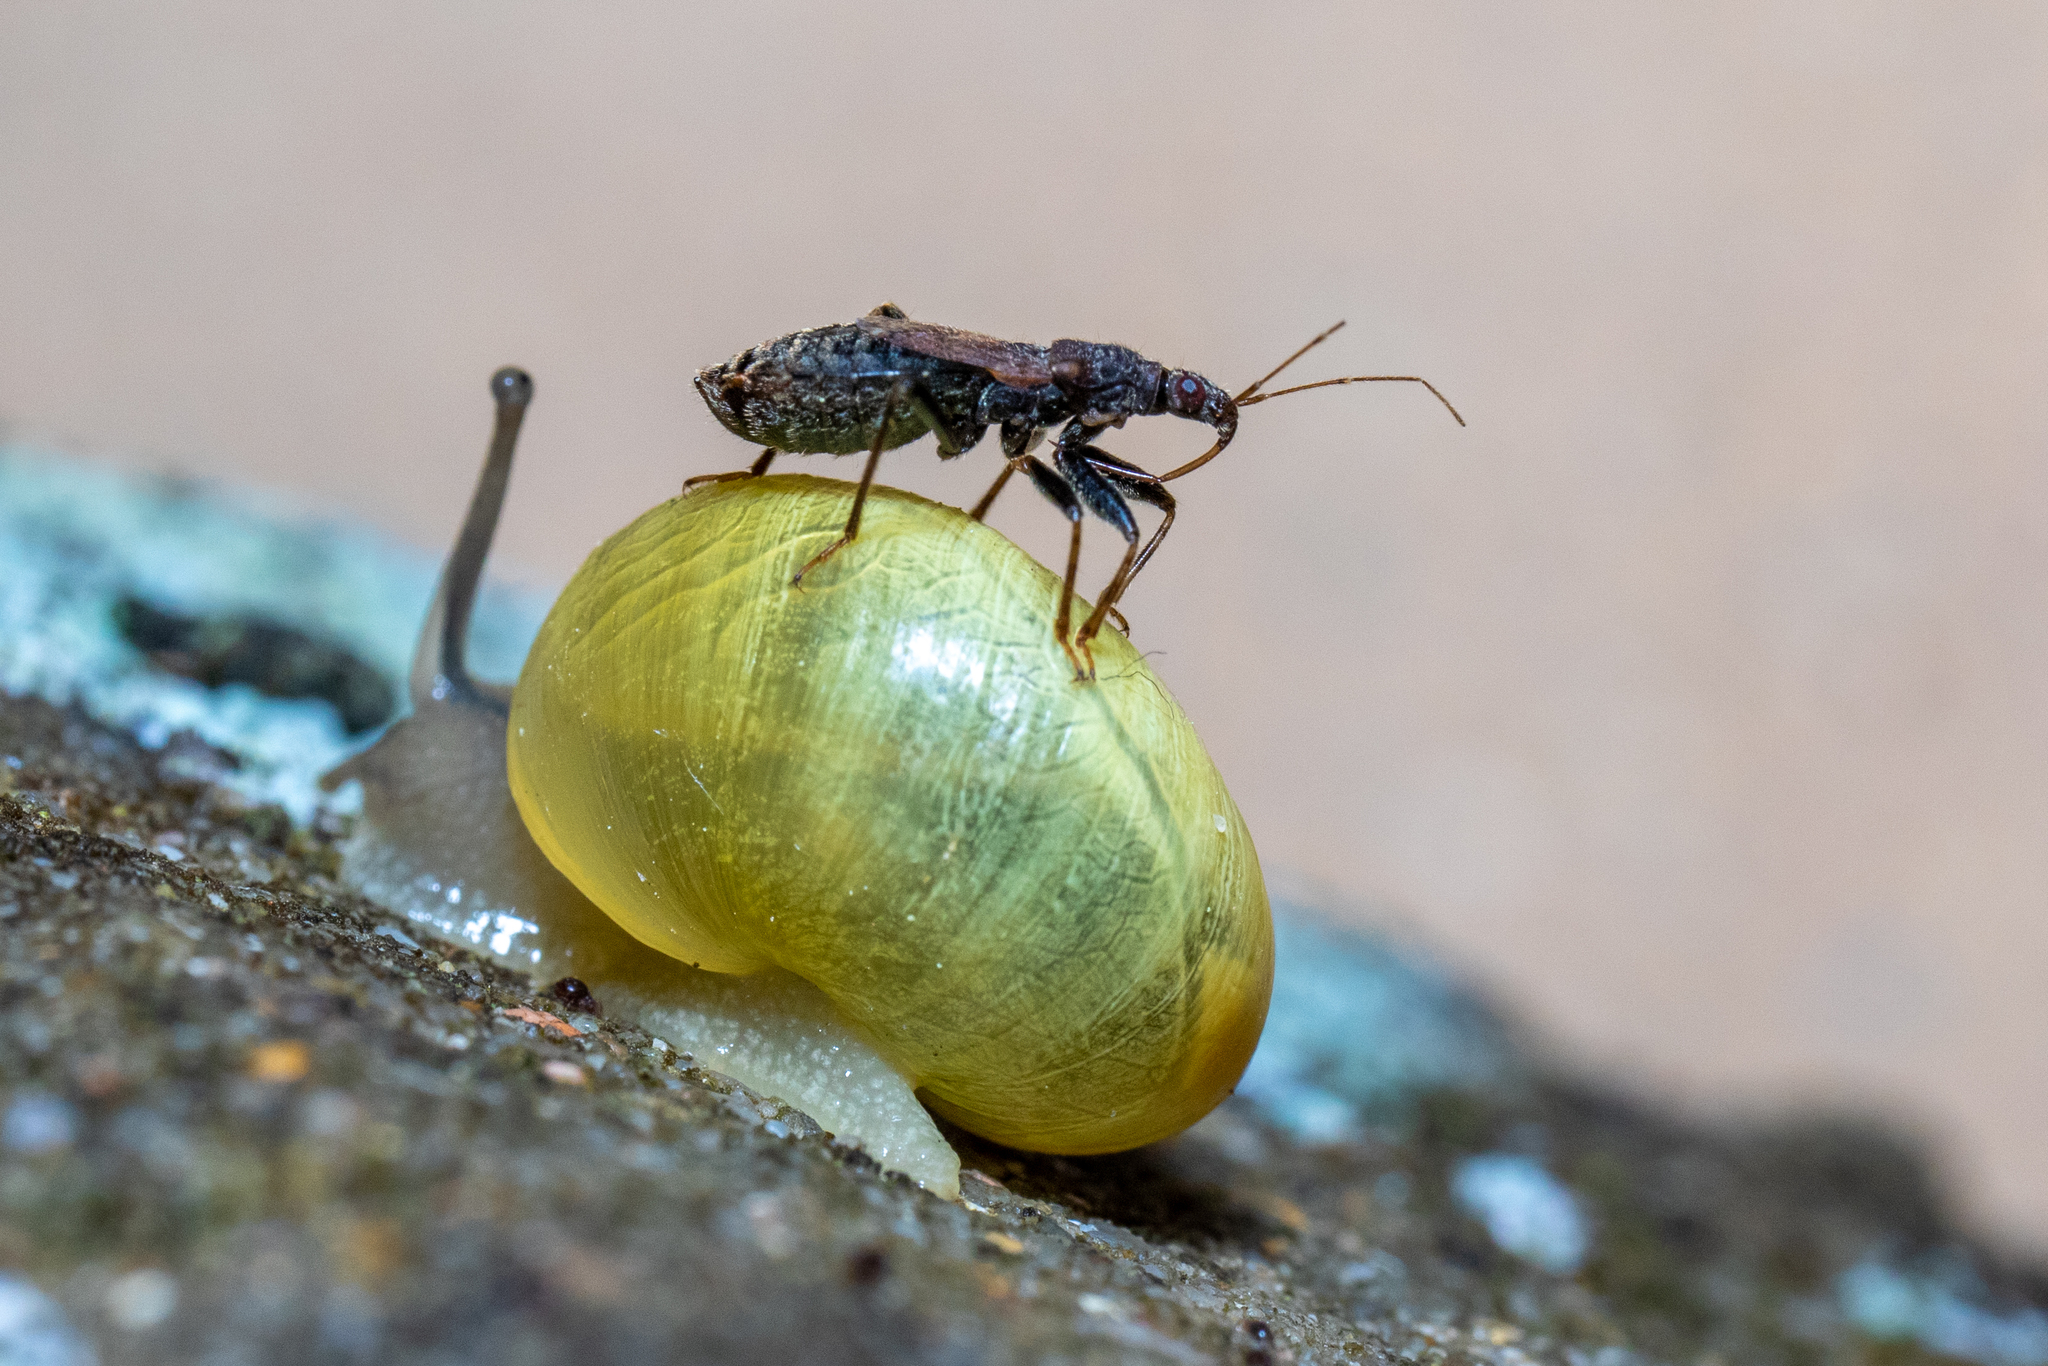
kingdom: Animalia
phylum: Arthropoda
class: Insecta
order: Hemiptera
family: Nabidae
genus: Himacerus
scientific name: Himacerus mirmicoides
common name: Ant damsel bug
